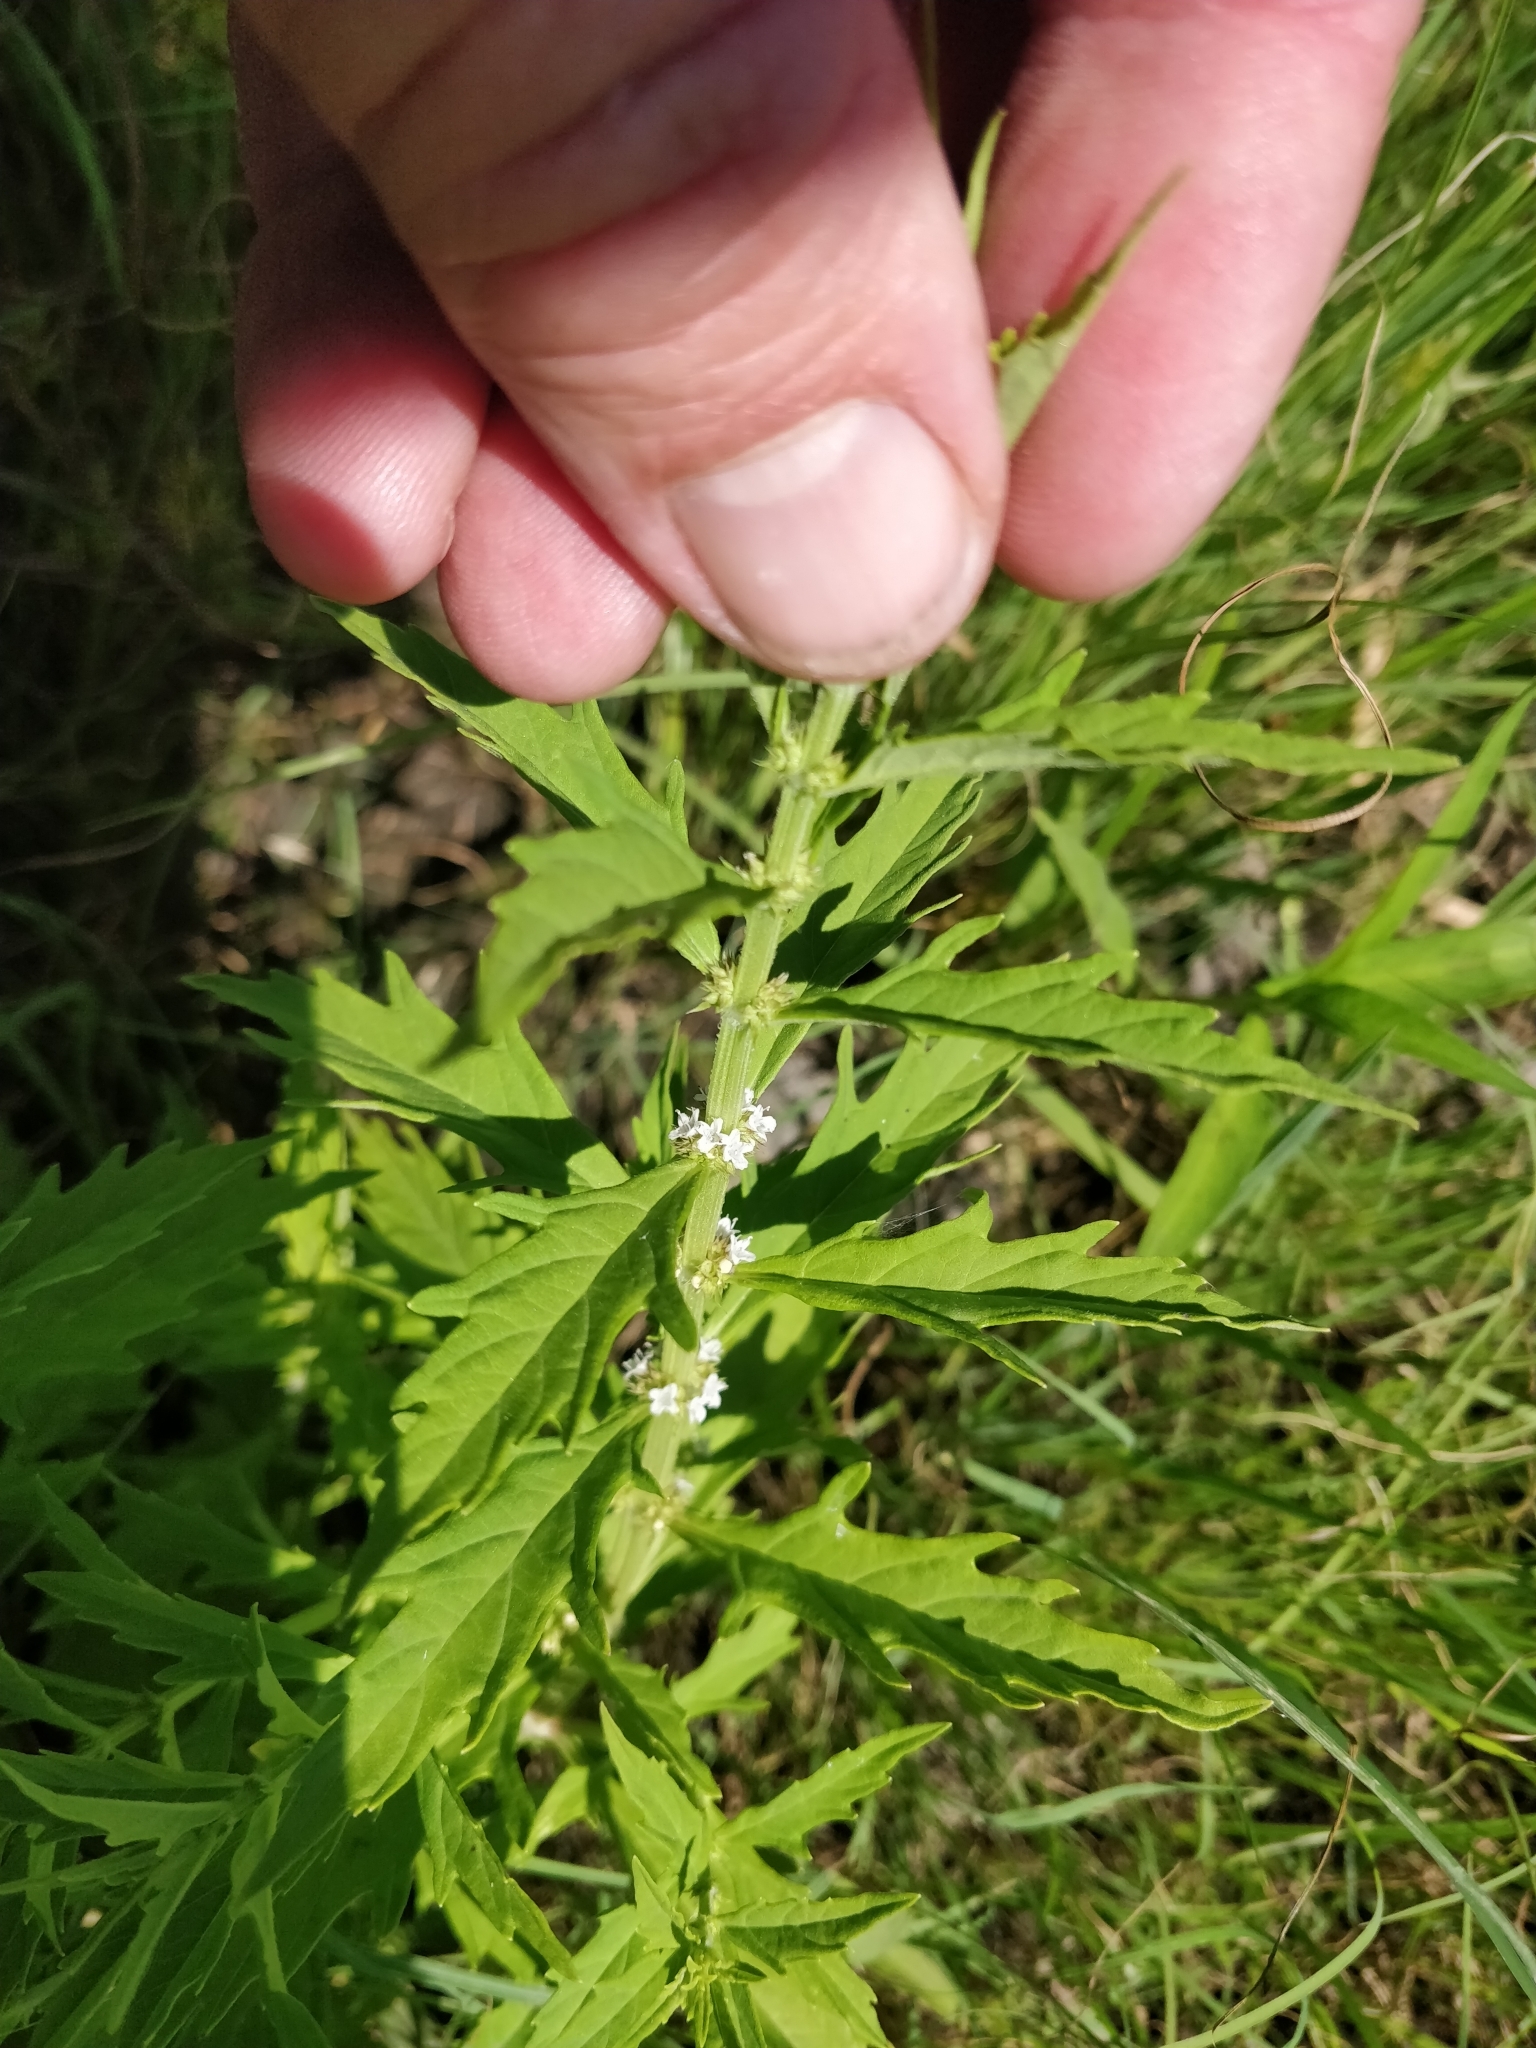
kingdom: Plantae
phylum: Tracheophyta
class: Magnoliopsida
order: Lamiales
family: Lamiaceae
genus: Lycopus
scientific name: Lycopus americanus
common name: American bugleweed
